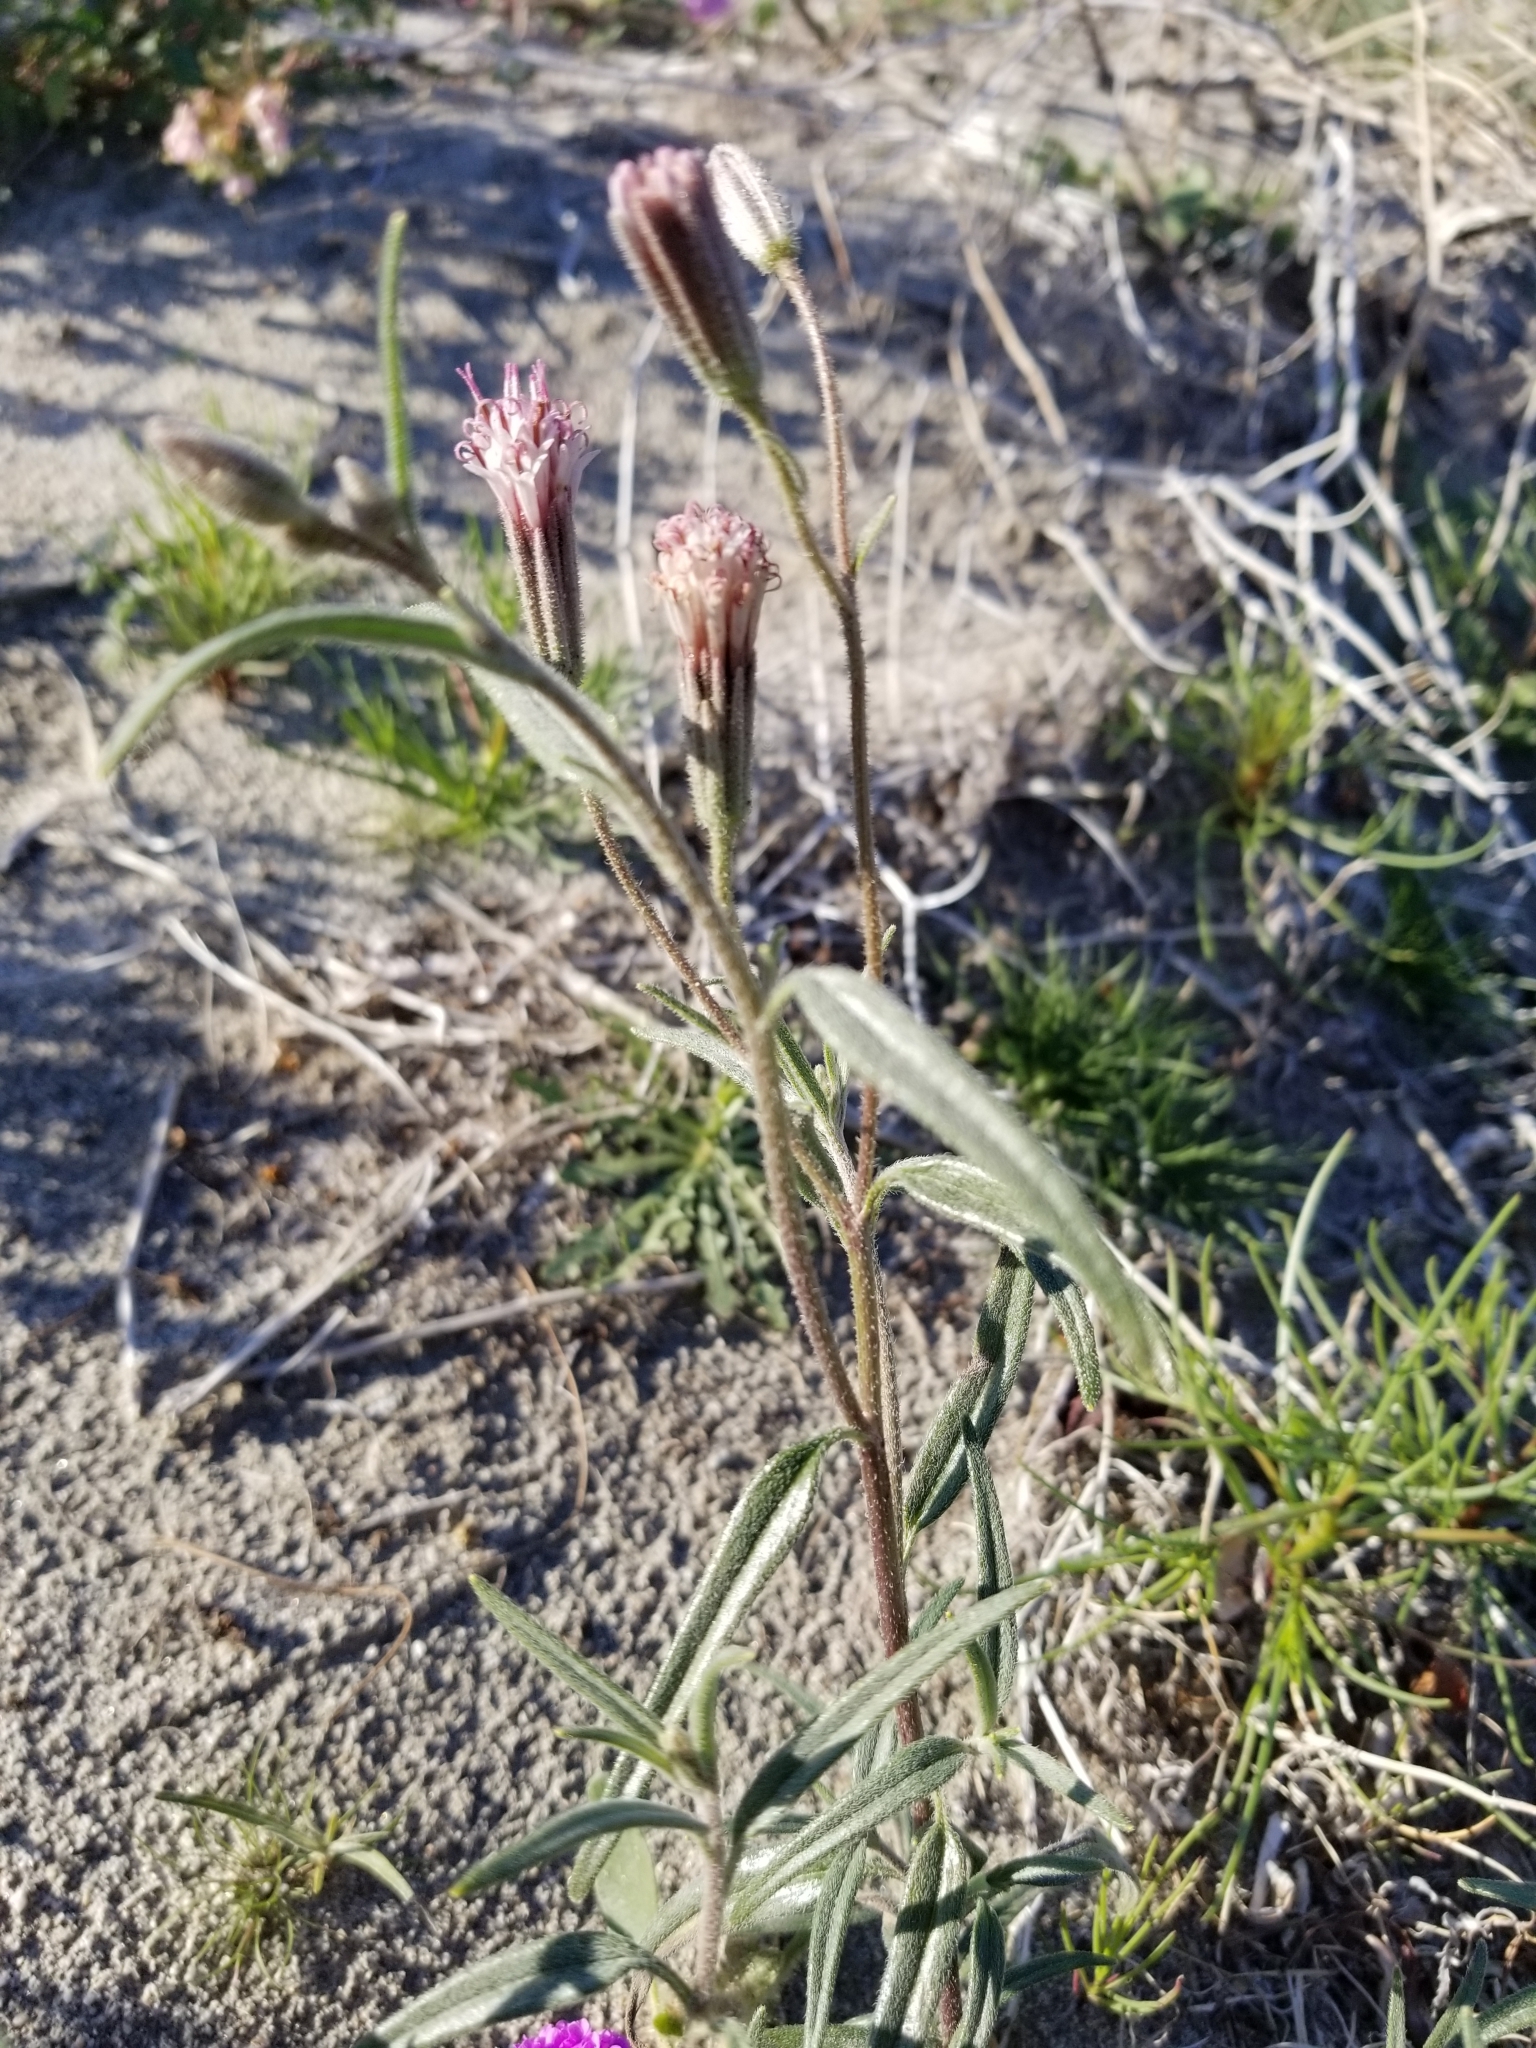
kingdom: Plantae
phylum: Tracheophyta
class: Magnoliopsida
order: Asterales
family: Asteraceae
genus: Palafoxia
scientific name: Palafoxia arida
